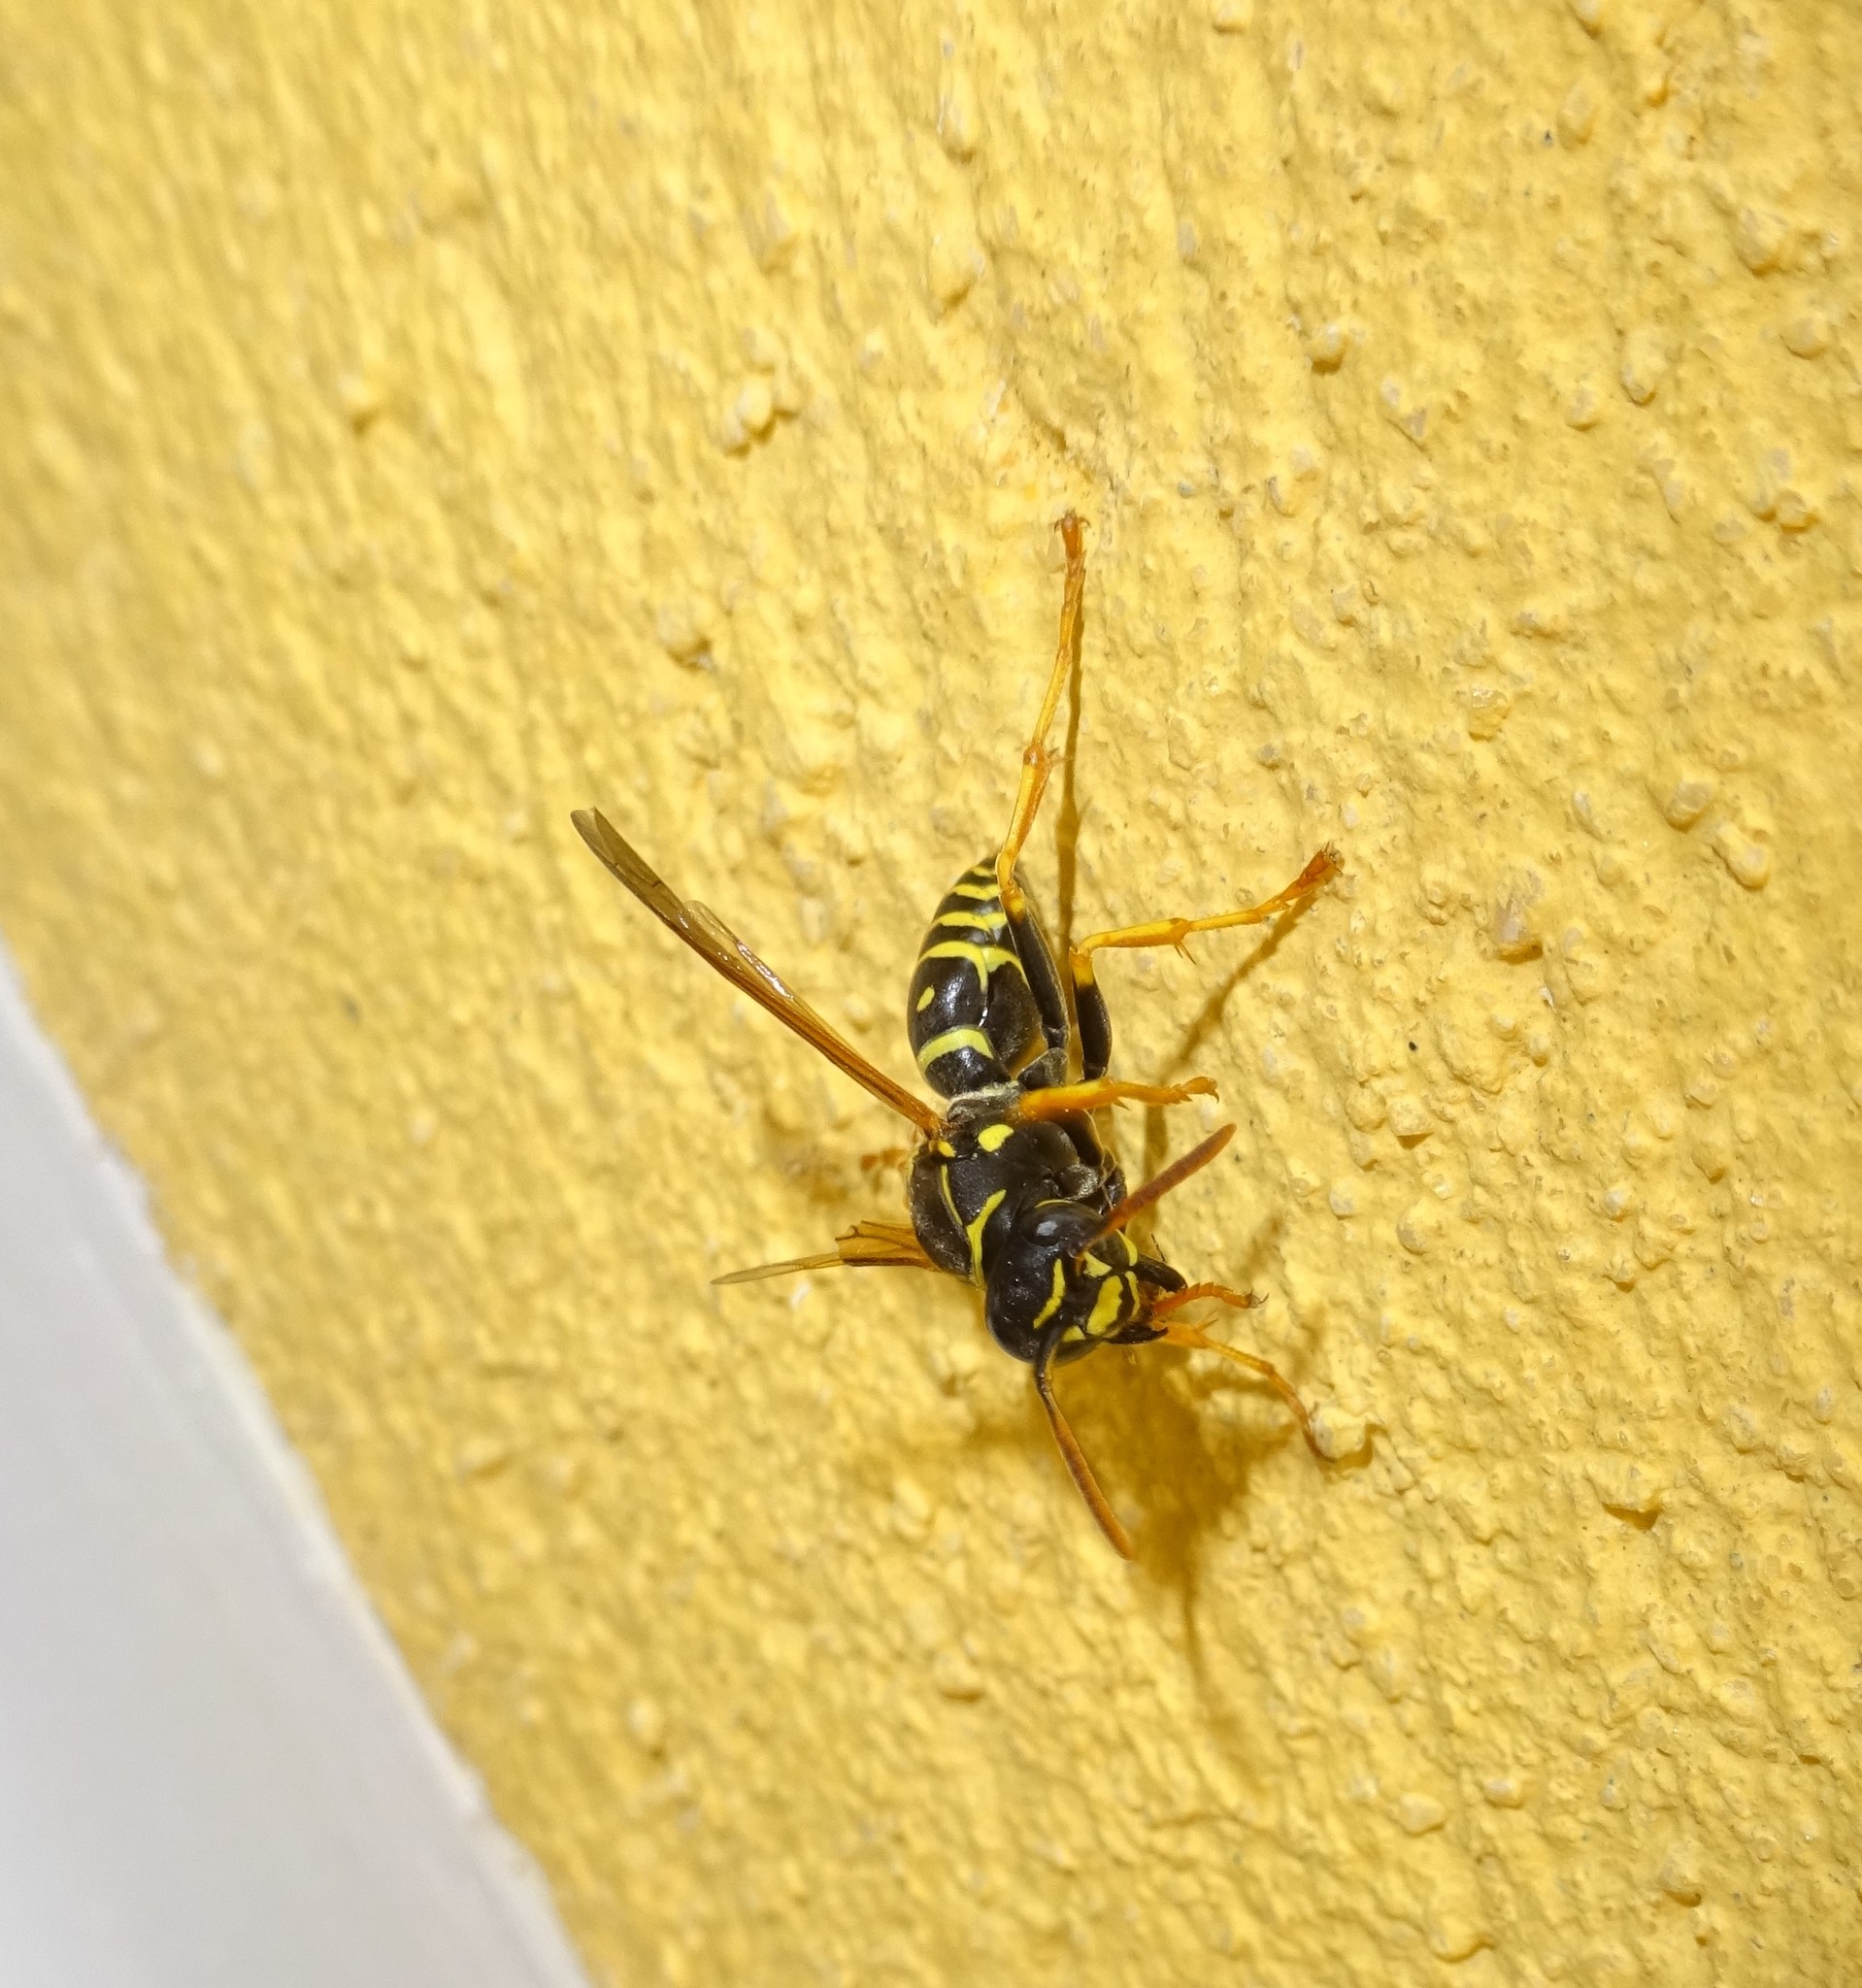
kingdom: Animalia
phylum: Arthropoda
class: Insecta
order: Hymenoptera
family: Eumenidae
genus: Polistes
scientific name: Polistes nimpha
